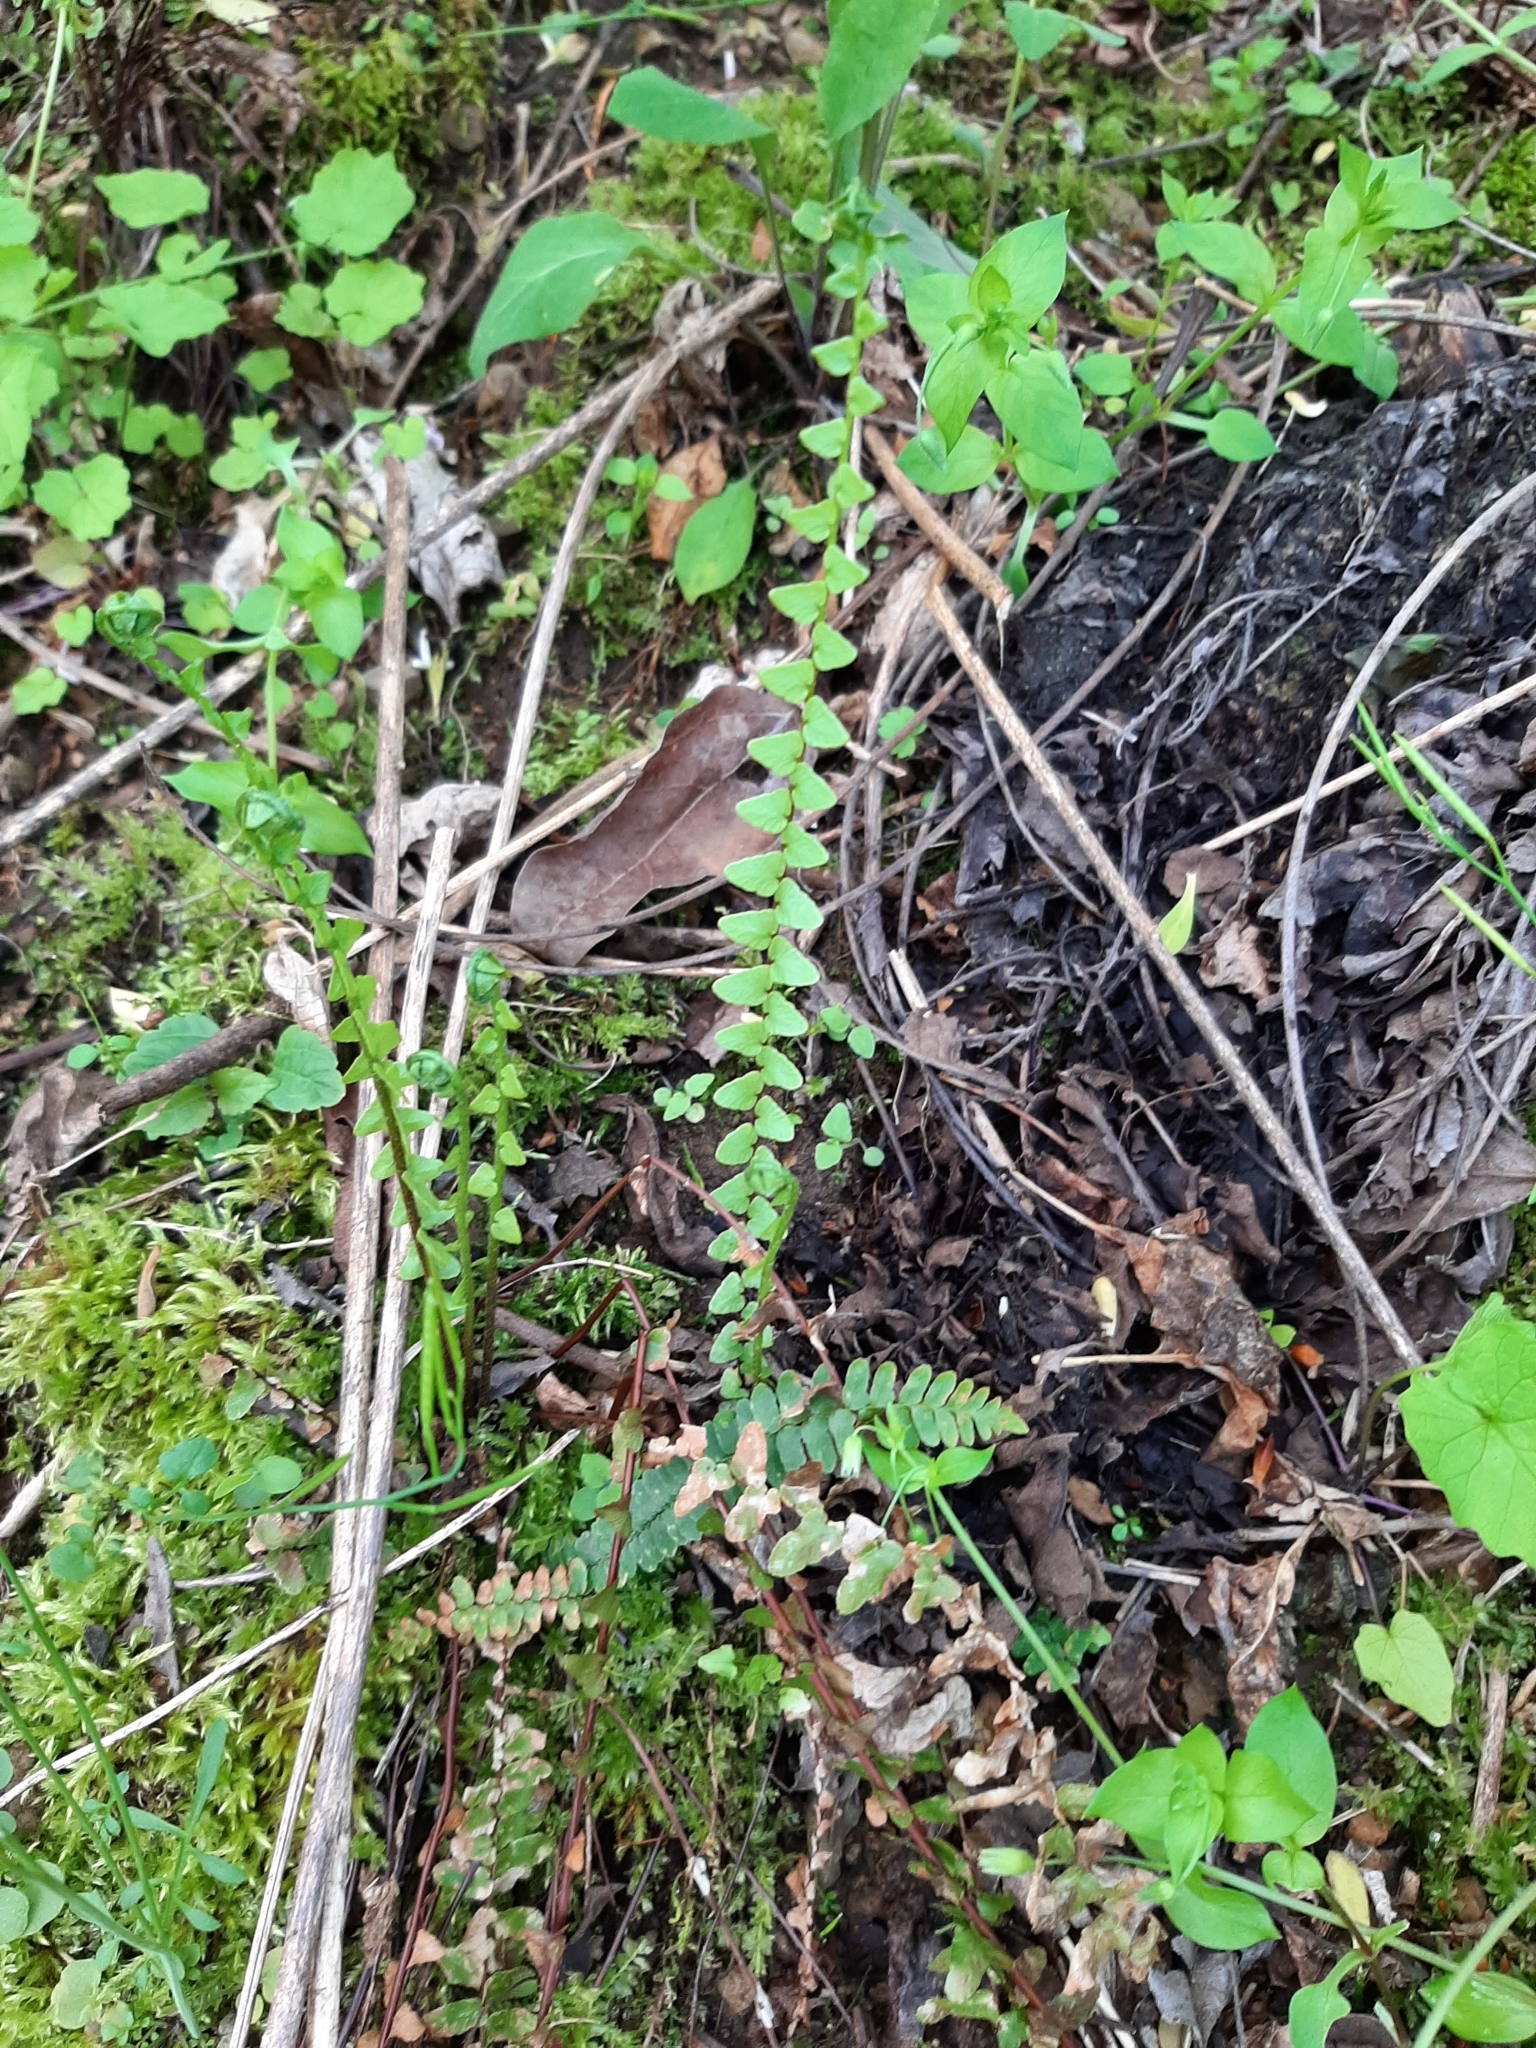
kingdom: Plantae
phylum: Tracheophyta
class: Polypodiopsida
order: Polypodiales
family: Aspleniaceae
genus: Asplenium
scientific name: Asplenium platyneuron
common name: Ebony spleenwort
